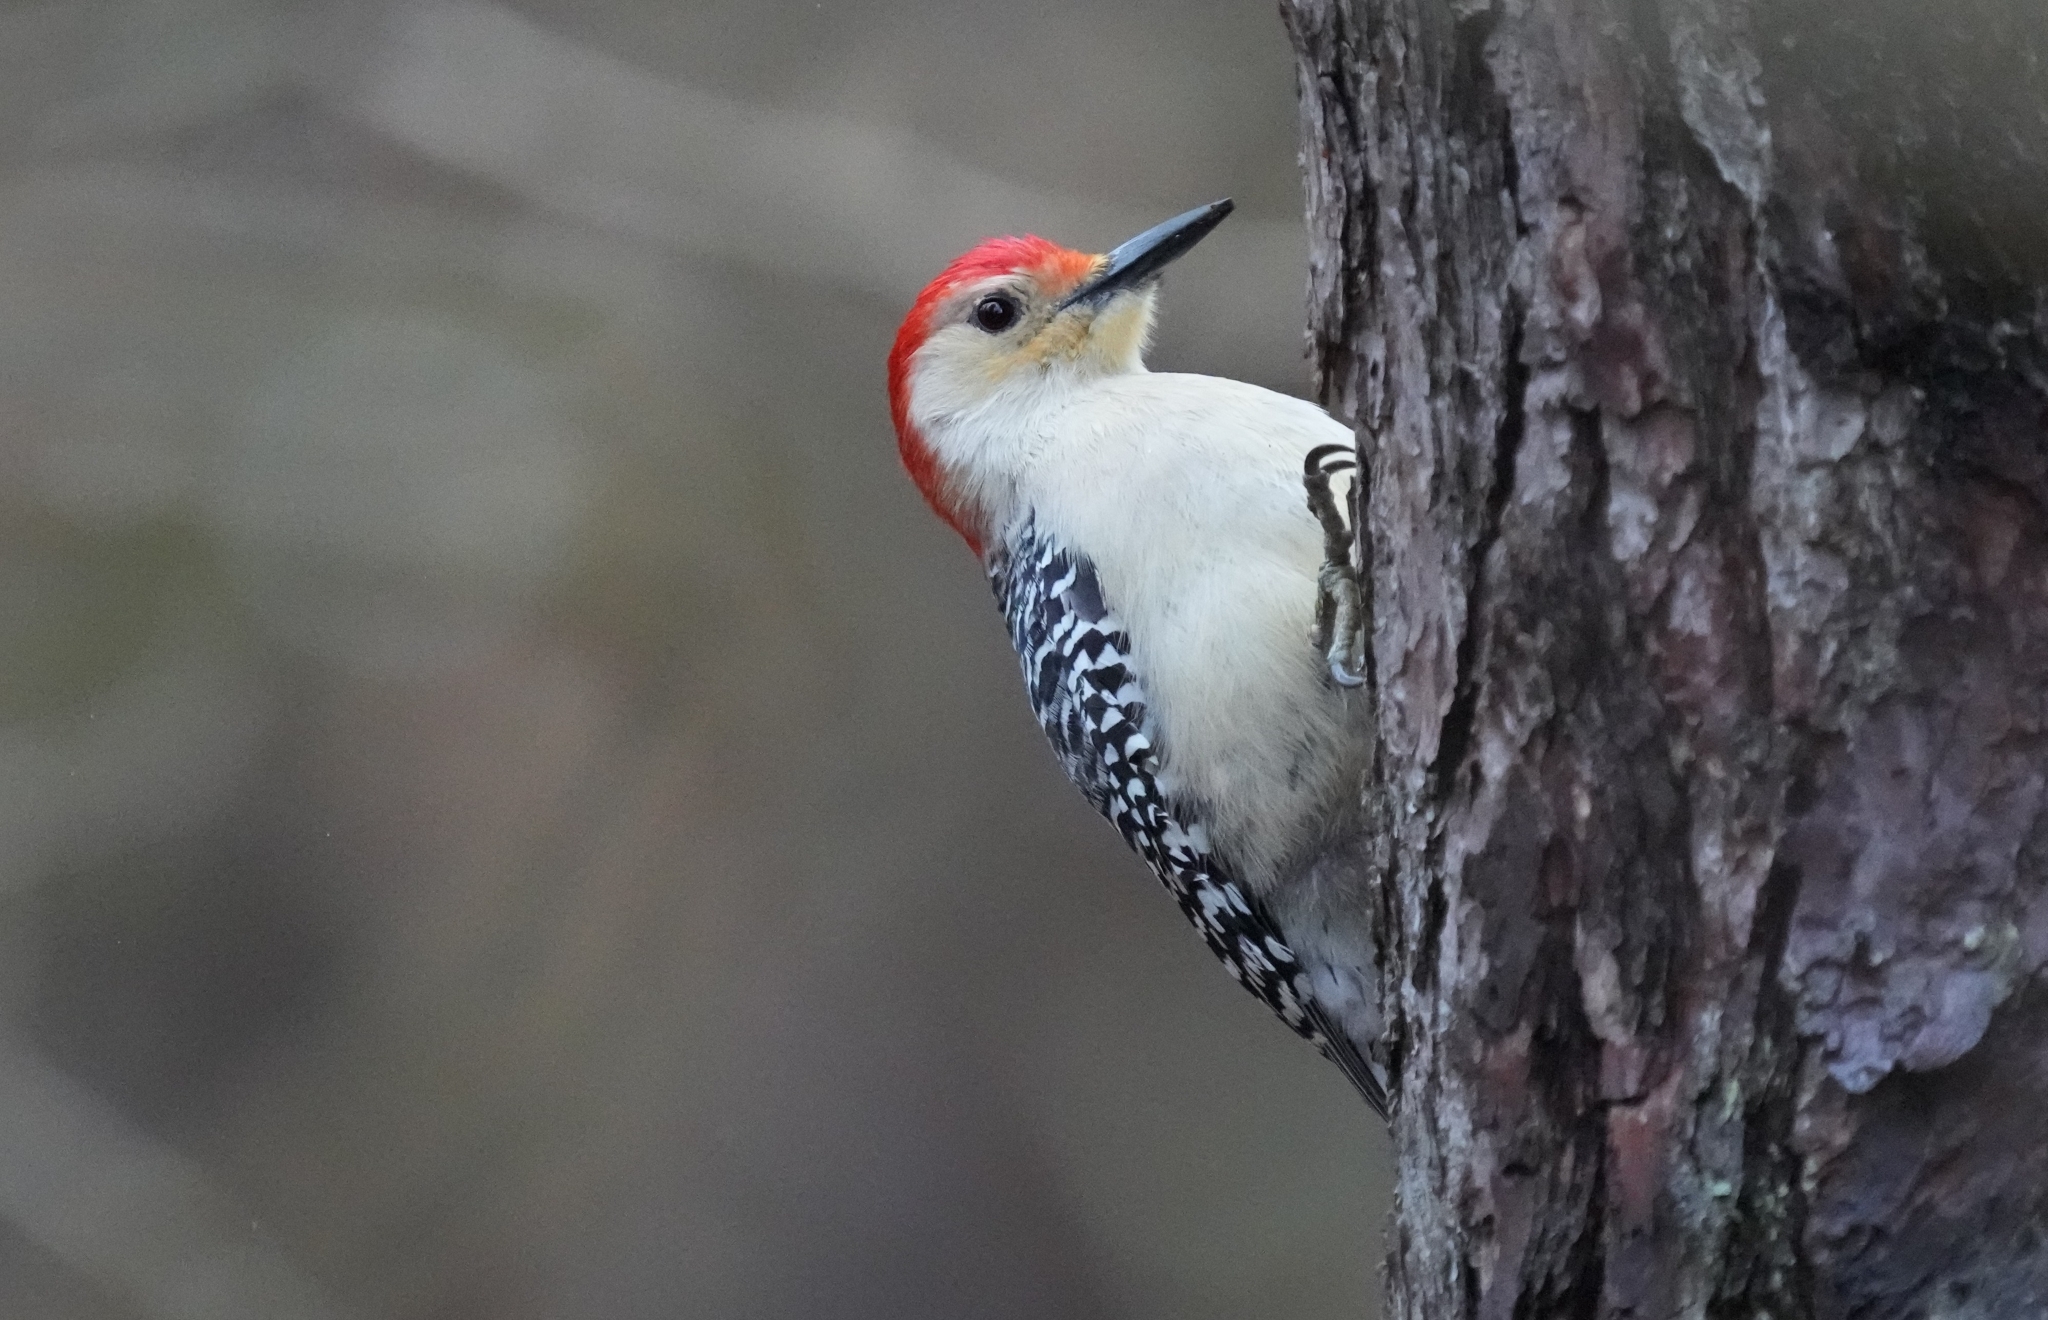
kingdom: Animalia
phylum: Chordata
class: Aves
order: Piciformes
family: Picidae
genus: Melanerpes
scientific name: Melanerpes carolinus
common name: Red-bellied woodpecker
